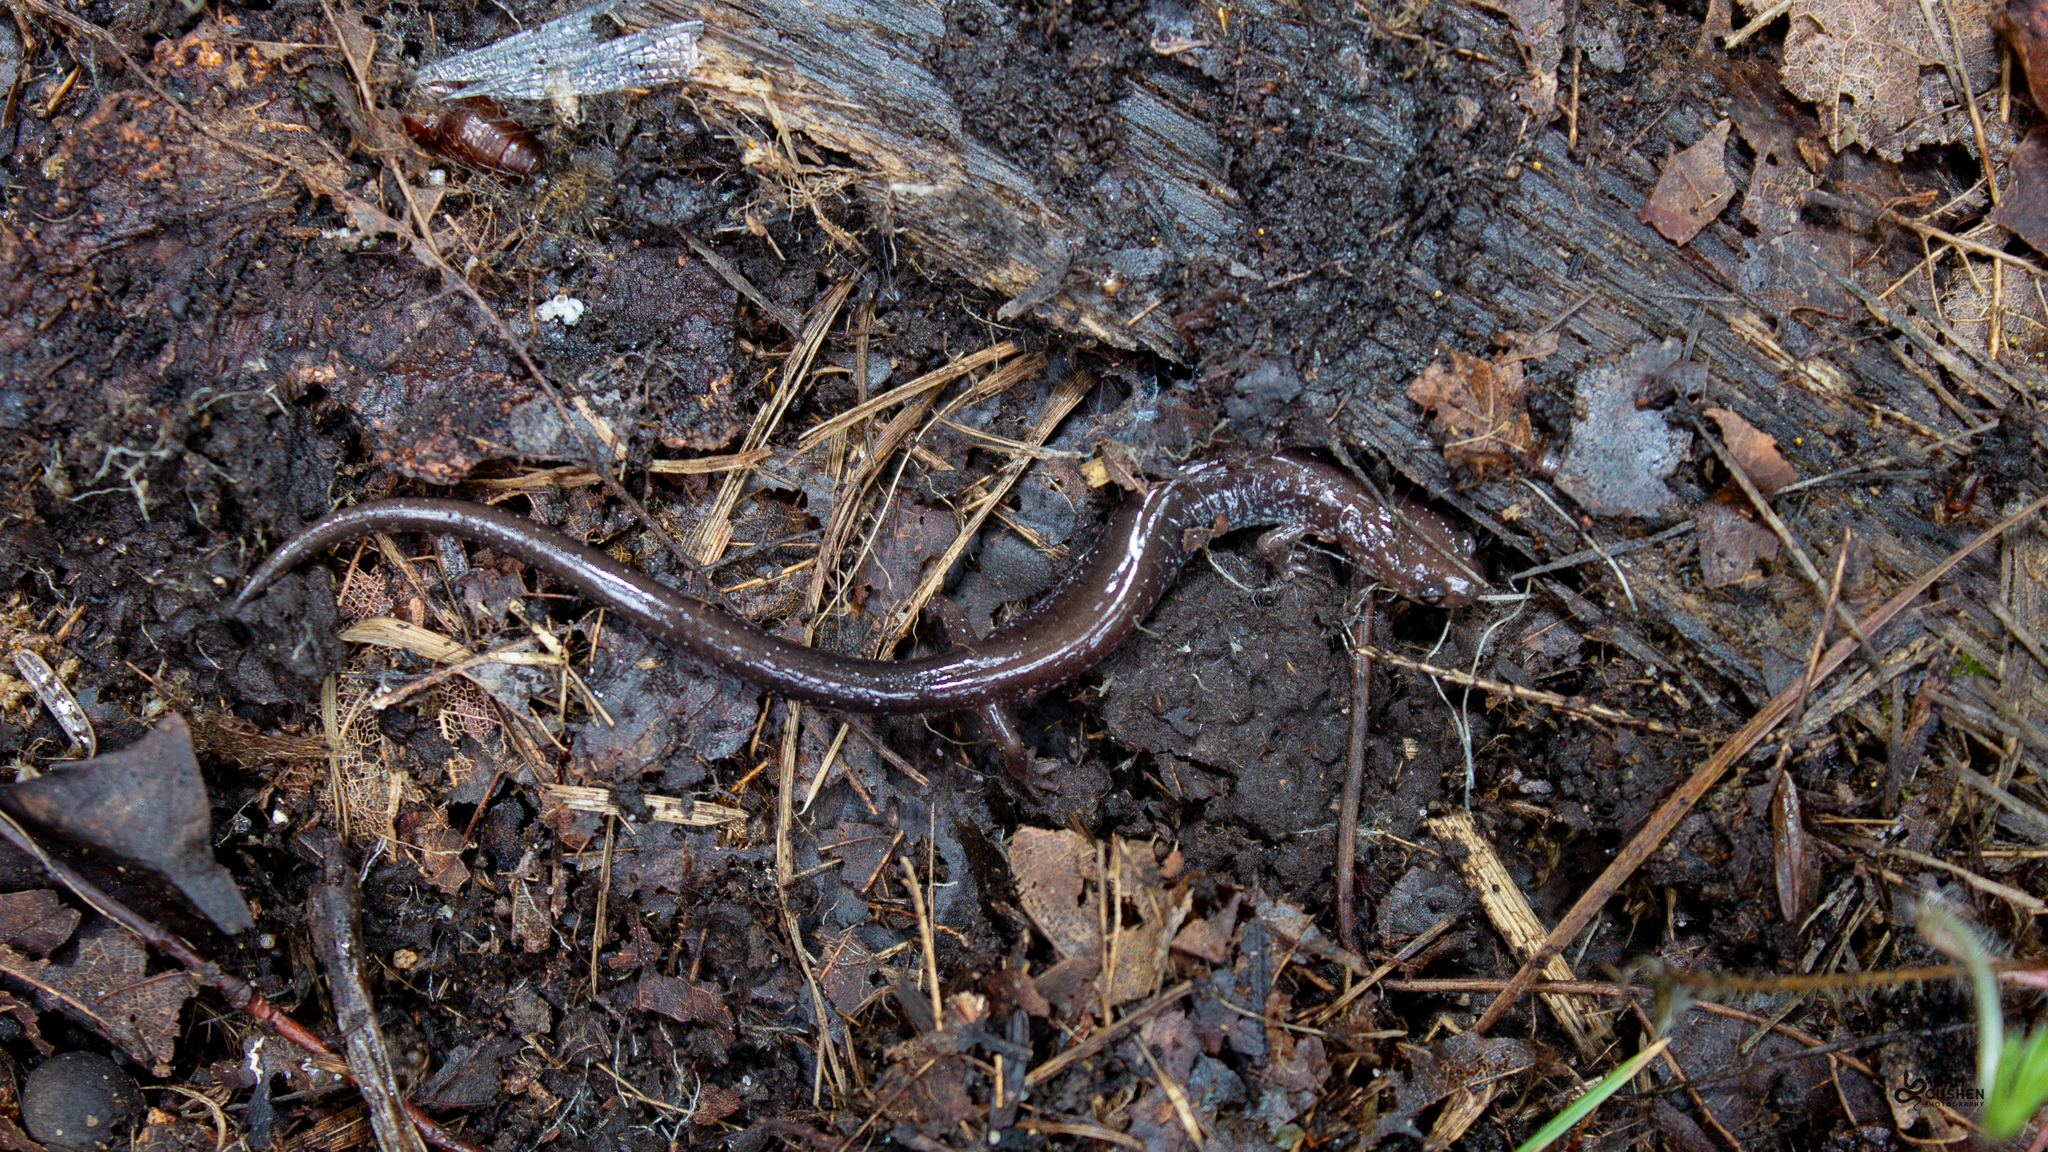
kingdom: Animalia
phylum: Chordata
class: Amphibia
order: Caudata
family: Plethodontidae
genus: Plethodon
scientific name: Plethodon cinereus
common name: Redback salamander
